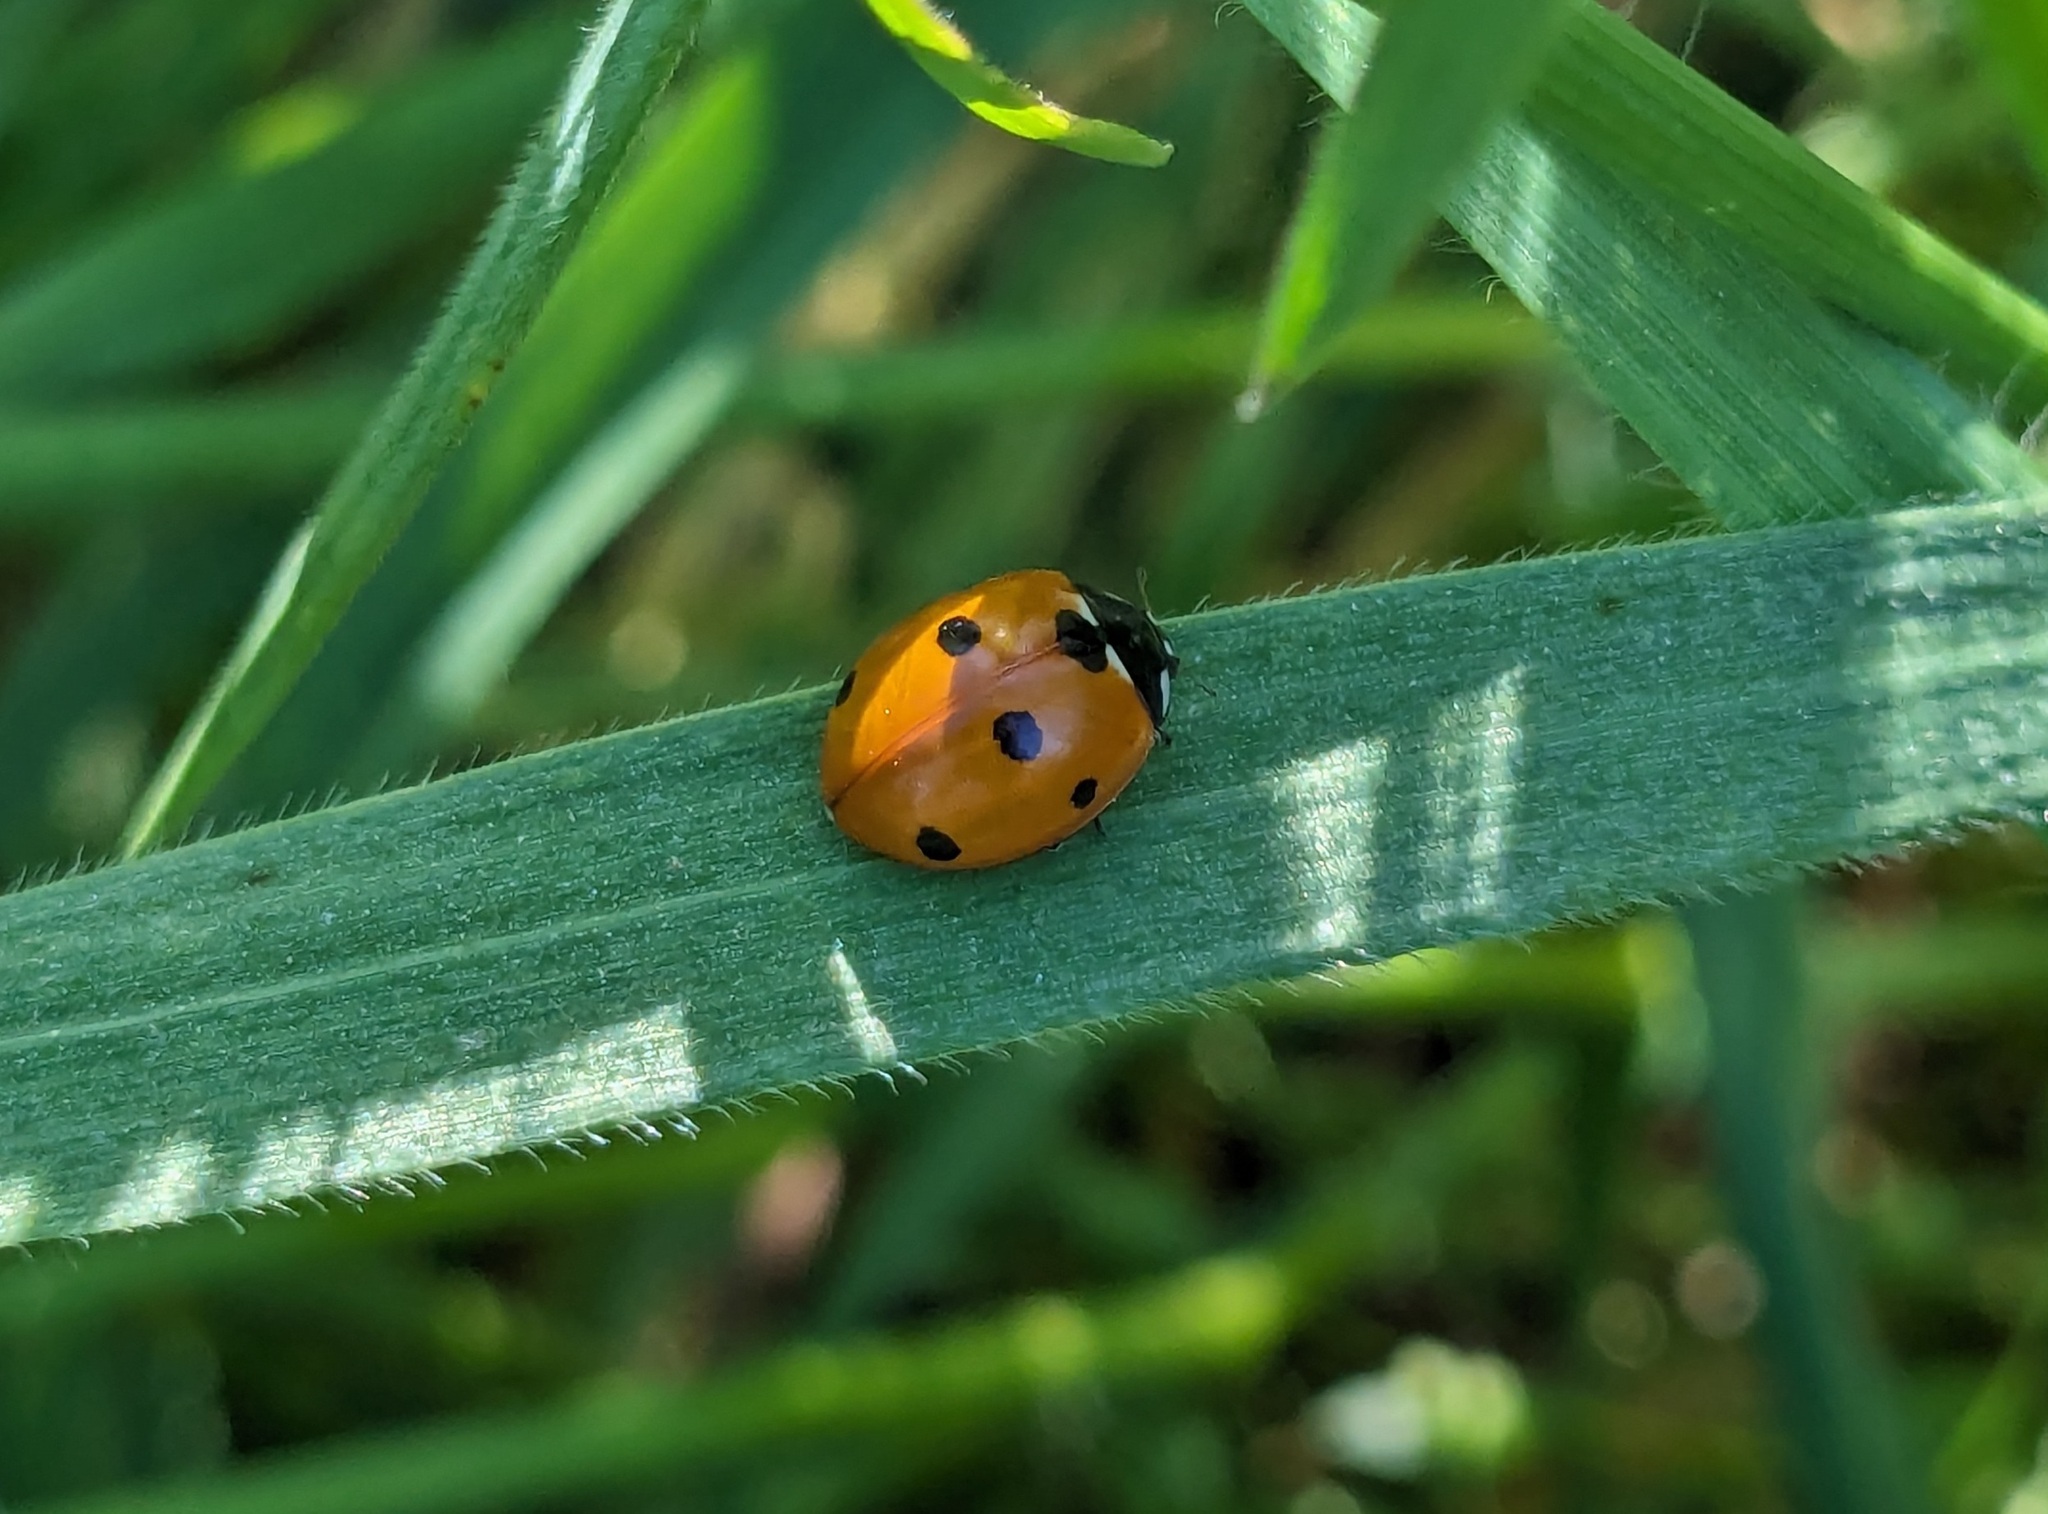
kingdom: Animalia
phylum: Arthropoda
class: Insecta
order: Coleoptera
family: Coccinellidae
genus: Coccinella
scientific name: Coccinella septempunctata
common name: Sevenspotted lady beetle
